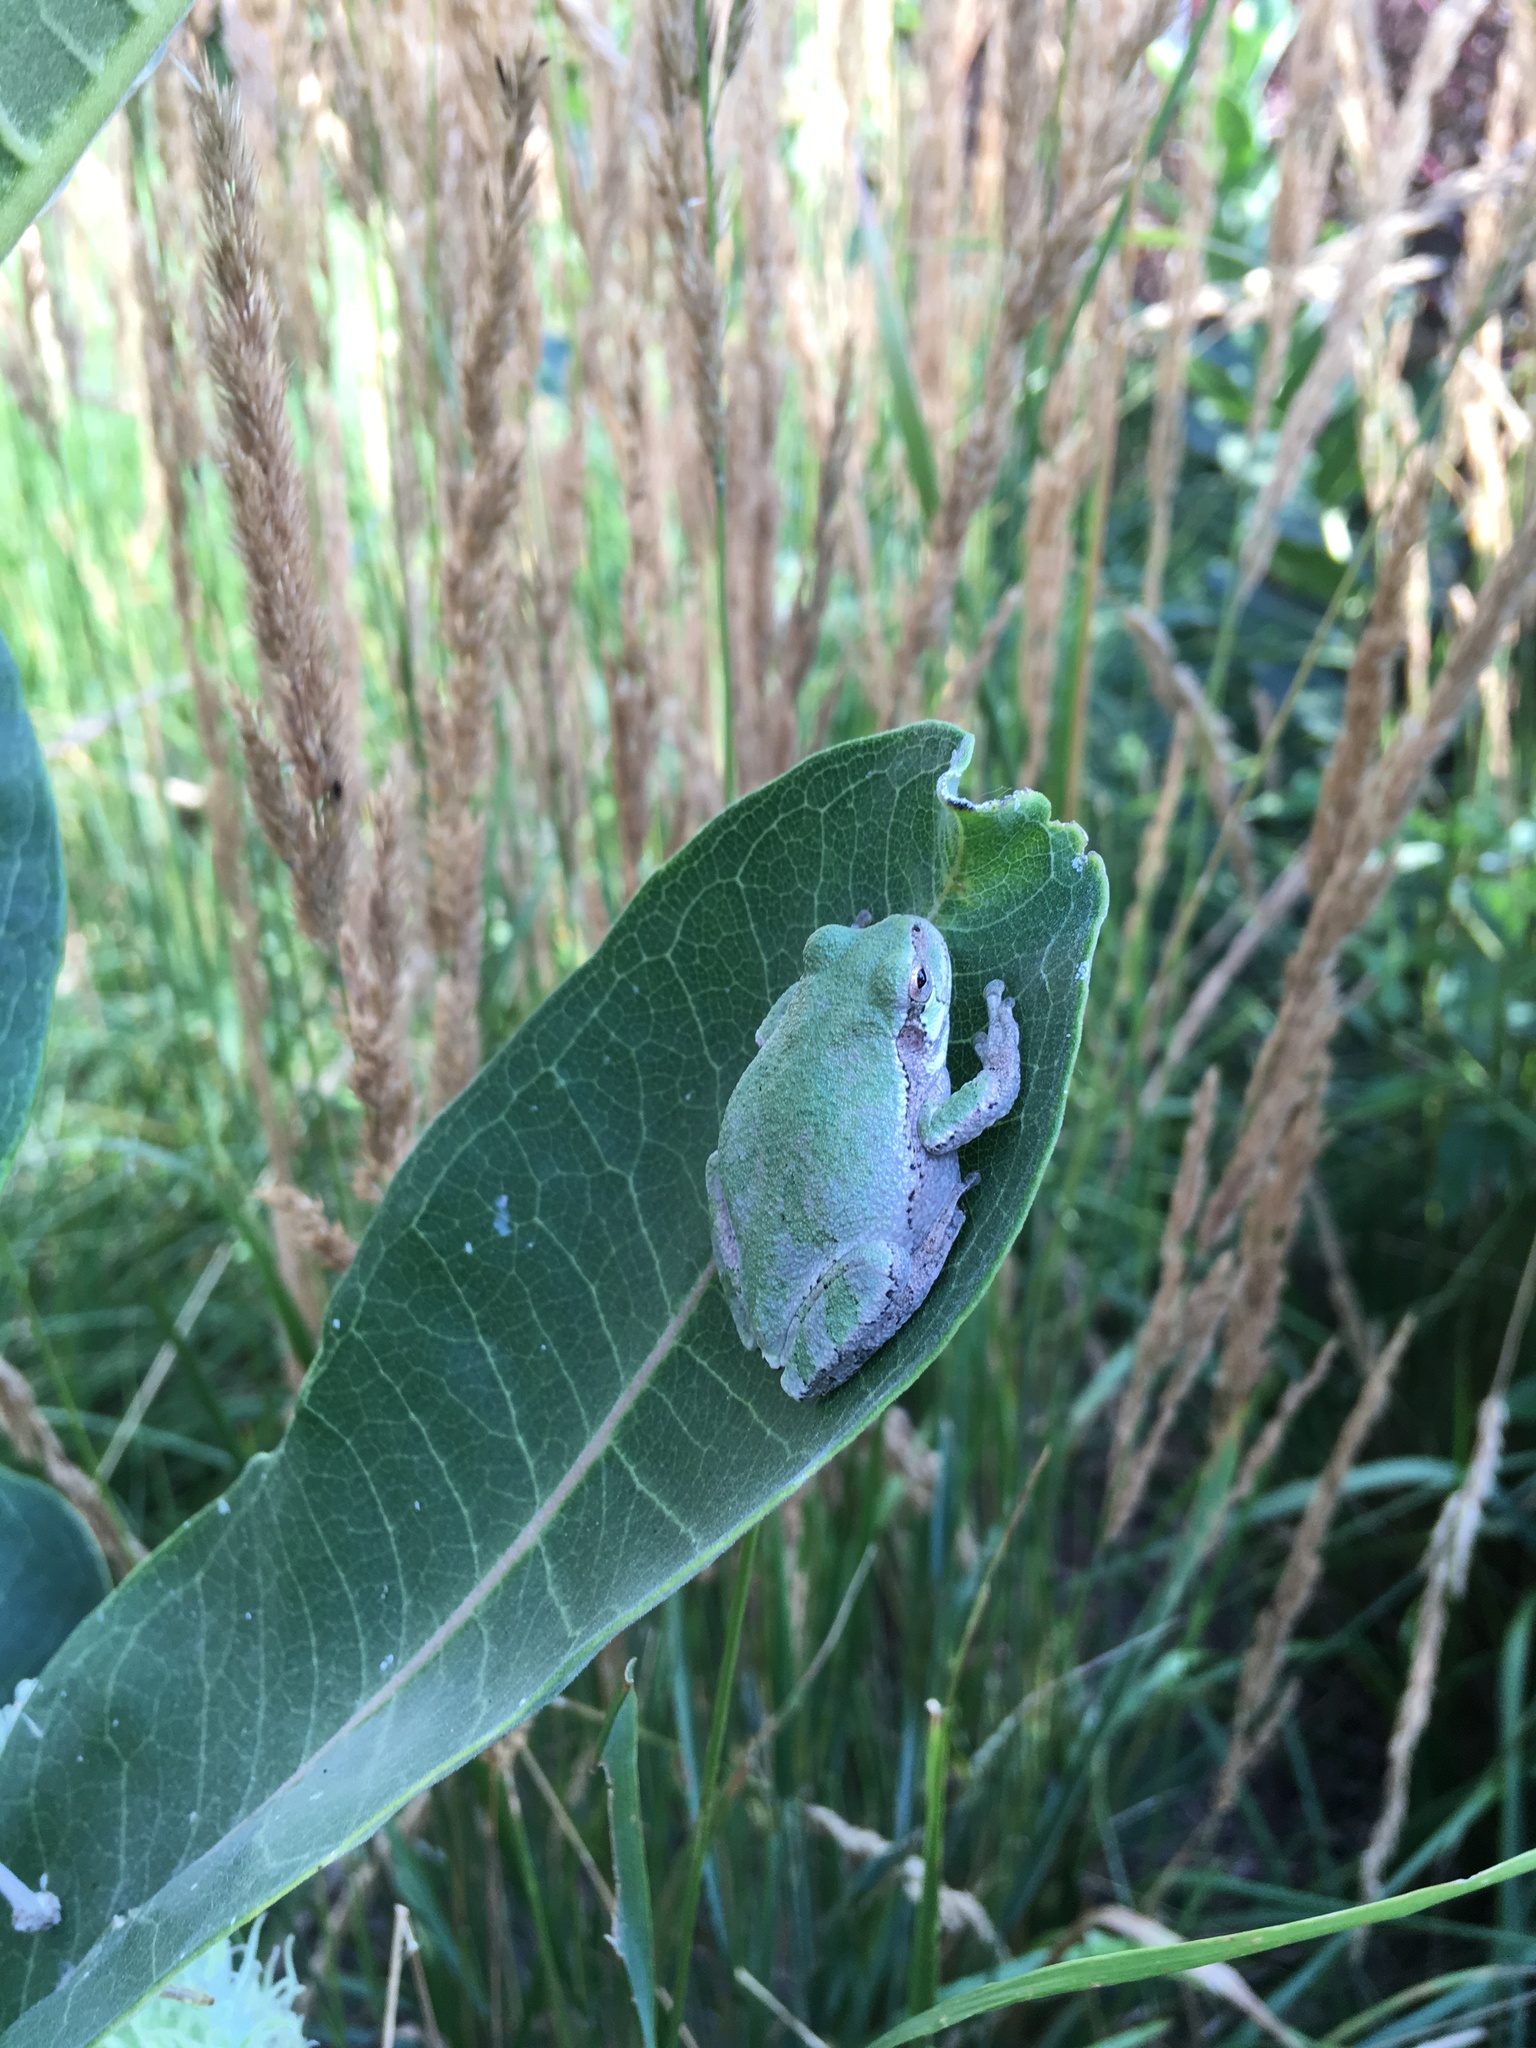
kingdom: Animalia
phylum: Chordata
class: Amphibia
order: Anura
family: Hylidae
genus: Dryophytes
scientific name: Dryophytes chrysoscelis
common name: Cope's gray treefrog
